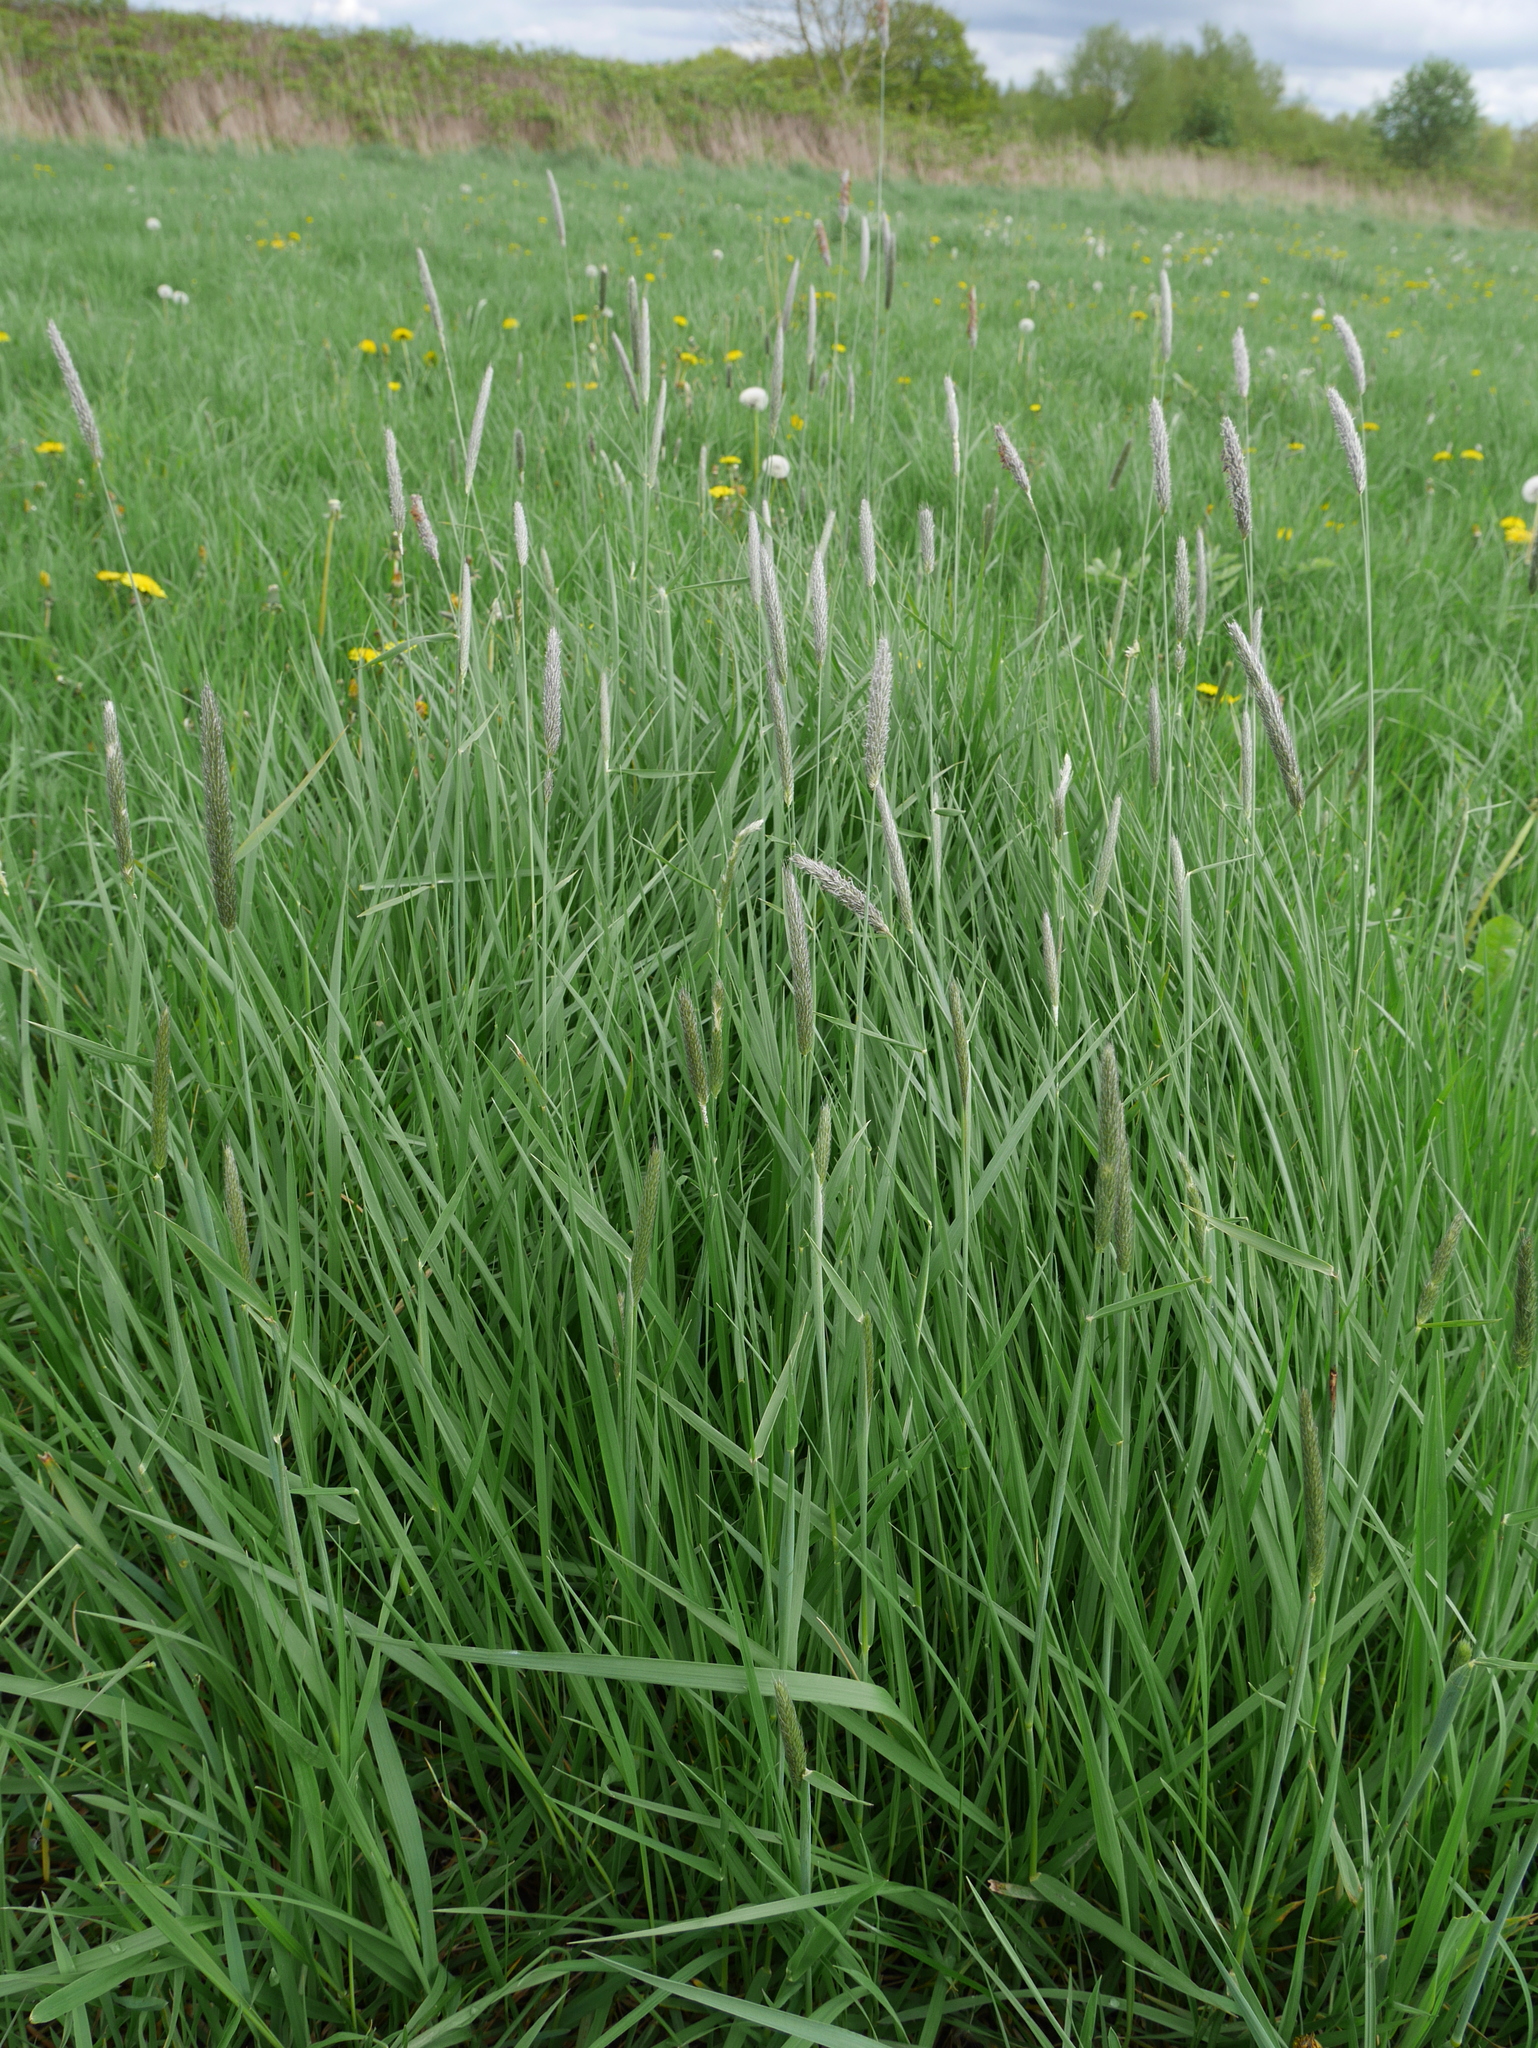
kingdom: Plantae
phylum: Tracheophyta
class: Liliopsida
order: Poales
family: Poaceae
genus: Alopecurus
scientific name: Alopecurus pratensis
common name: Meadow foxtail
